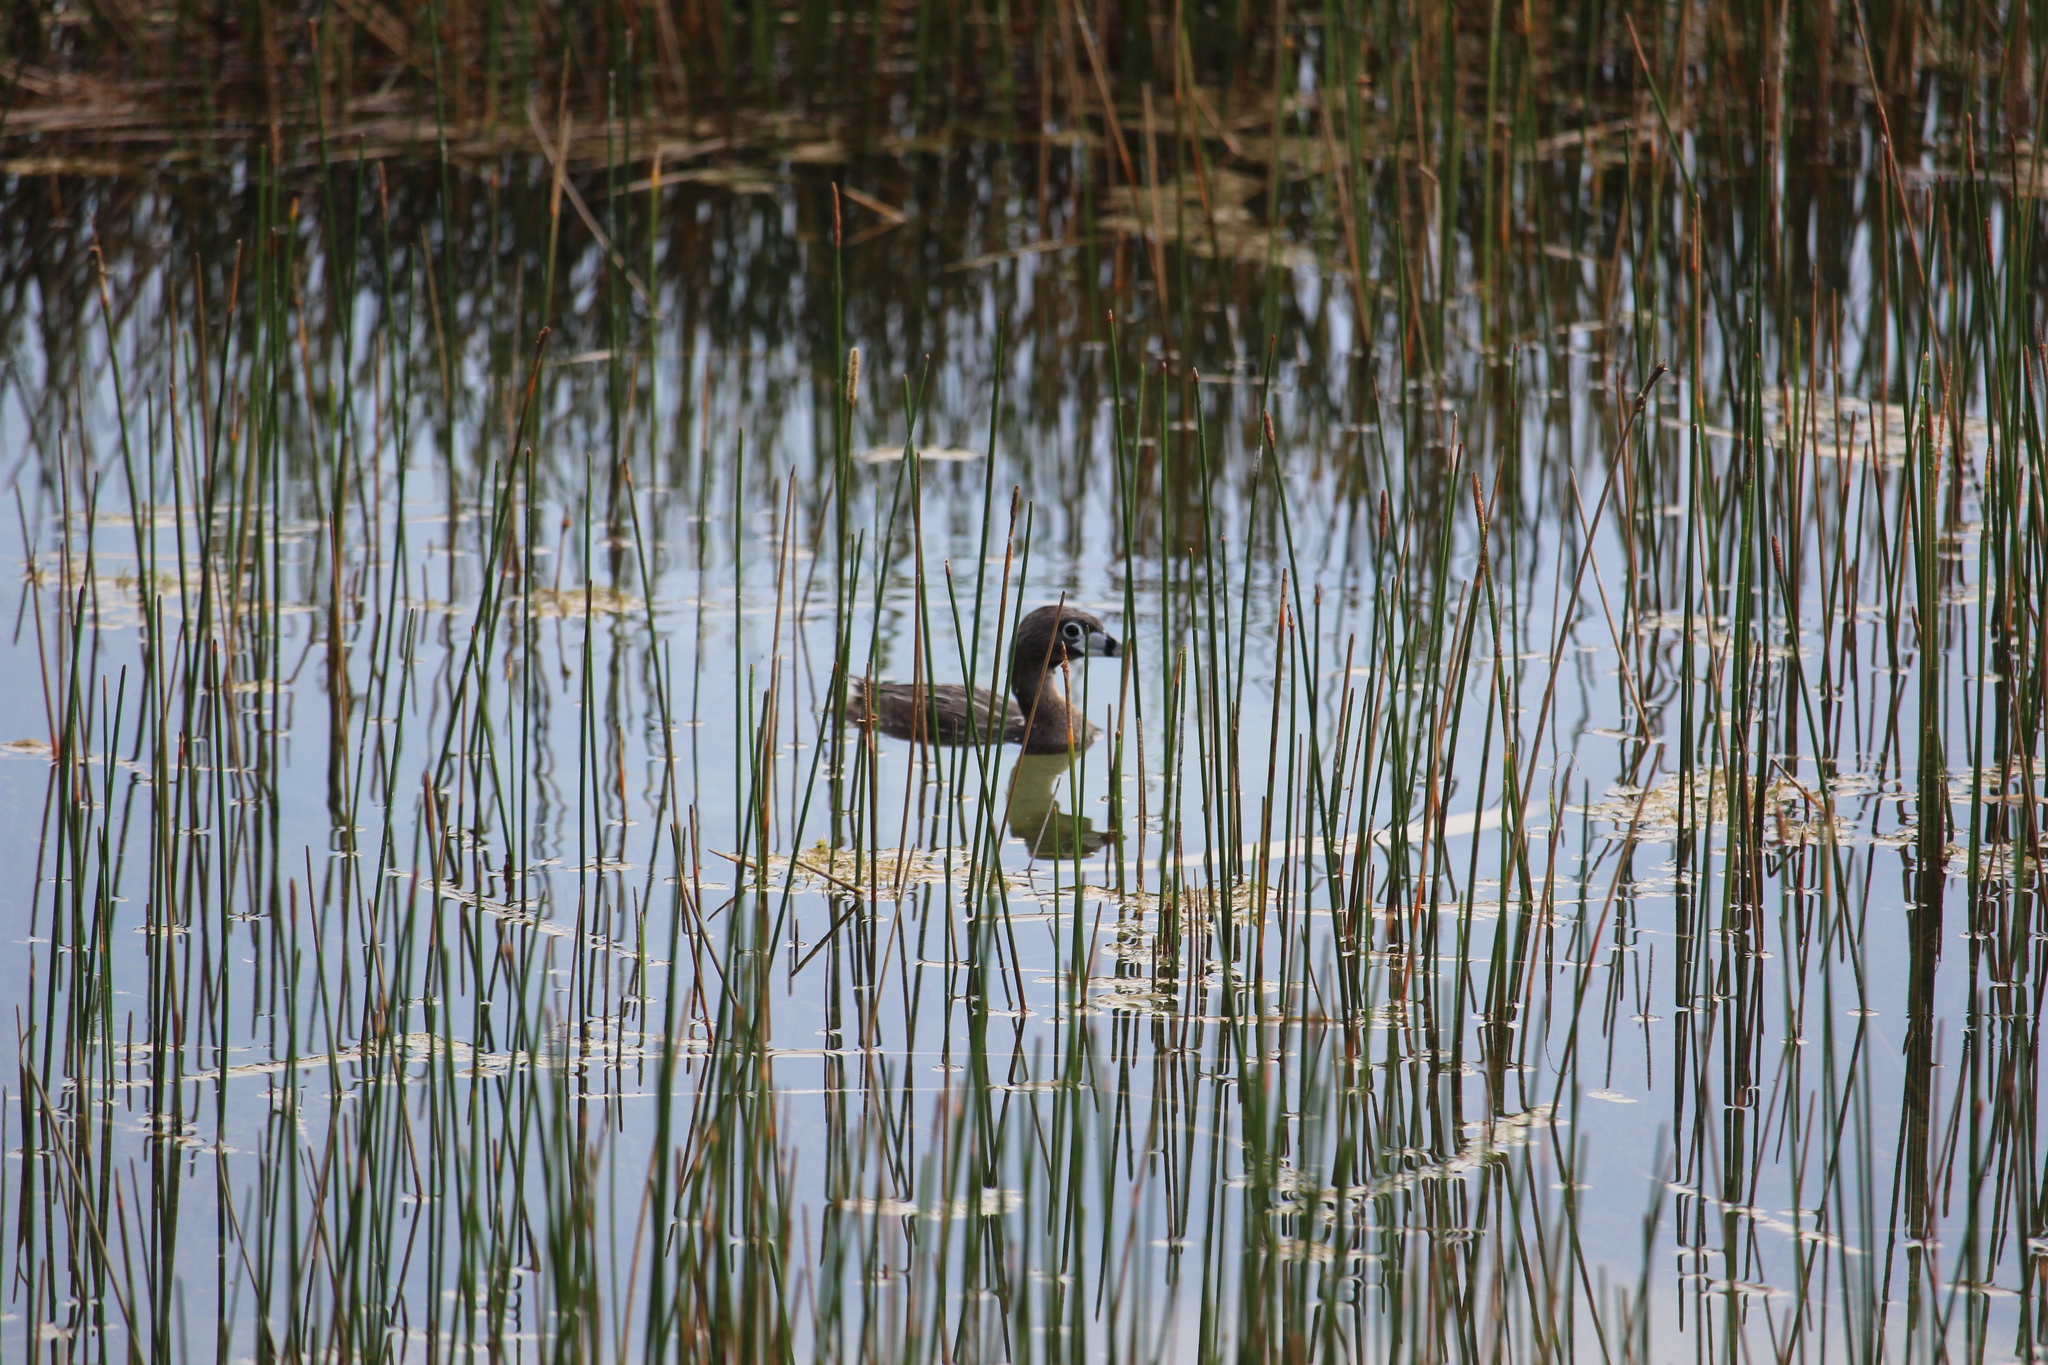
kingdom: Animalia
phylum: Chordata
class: Aves
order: Podicipediformes
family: Podicipedidae
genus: Podilymbus
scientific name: Podilymbus podiceps
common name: Pied-billed grebe
